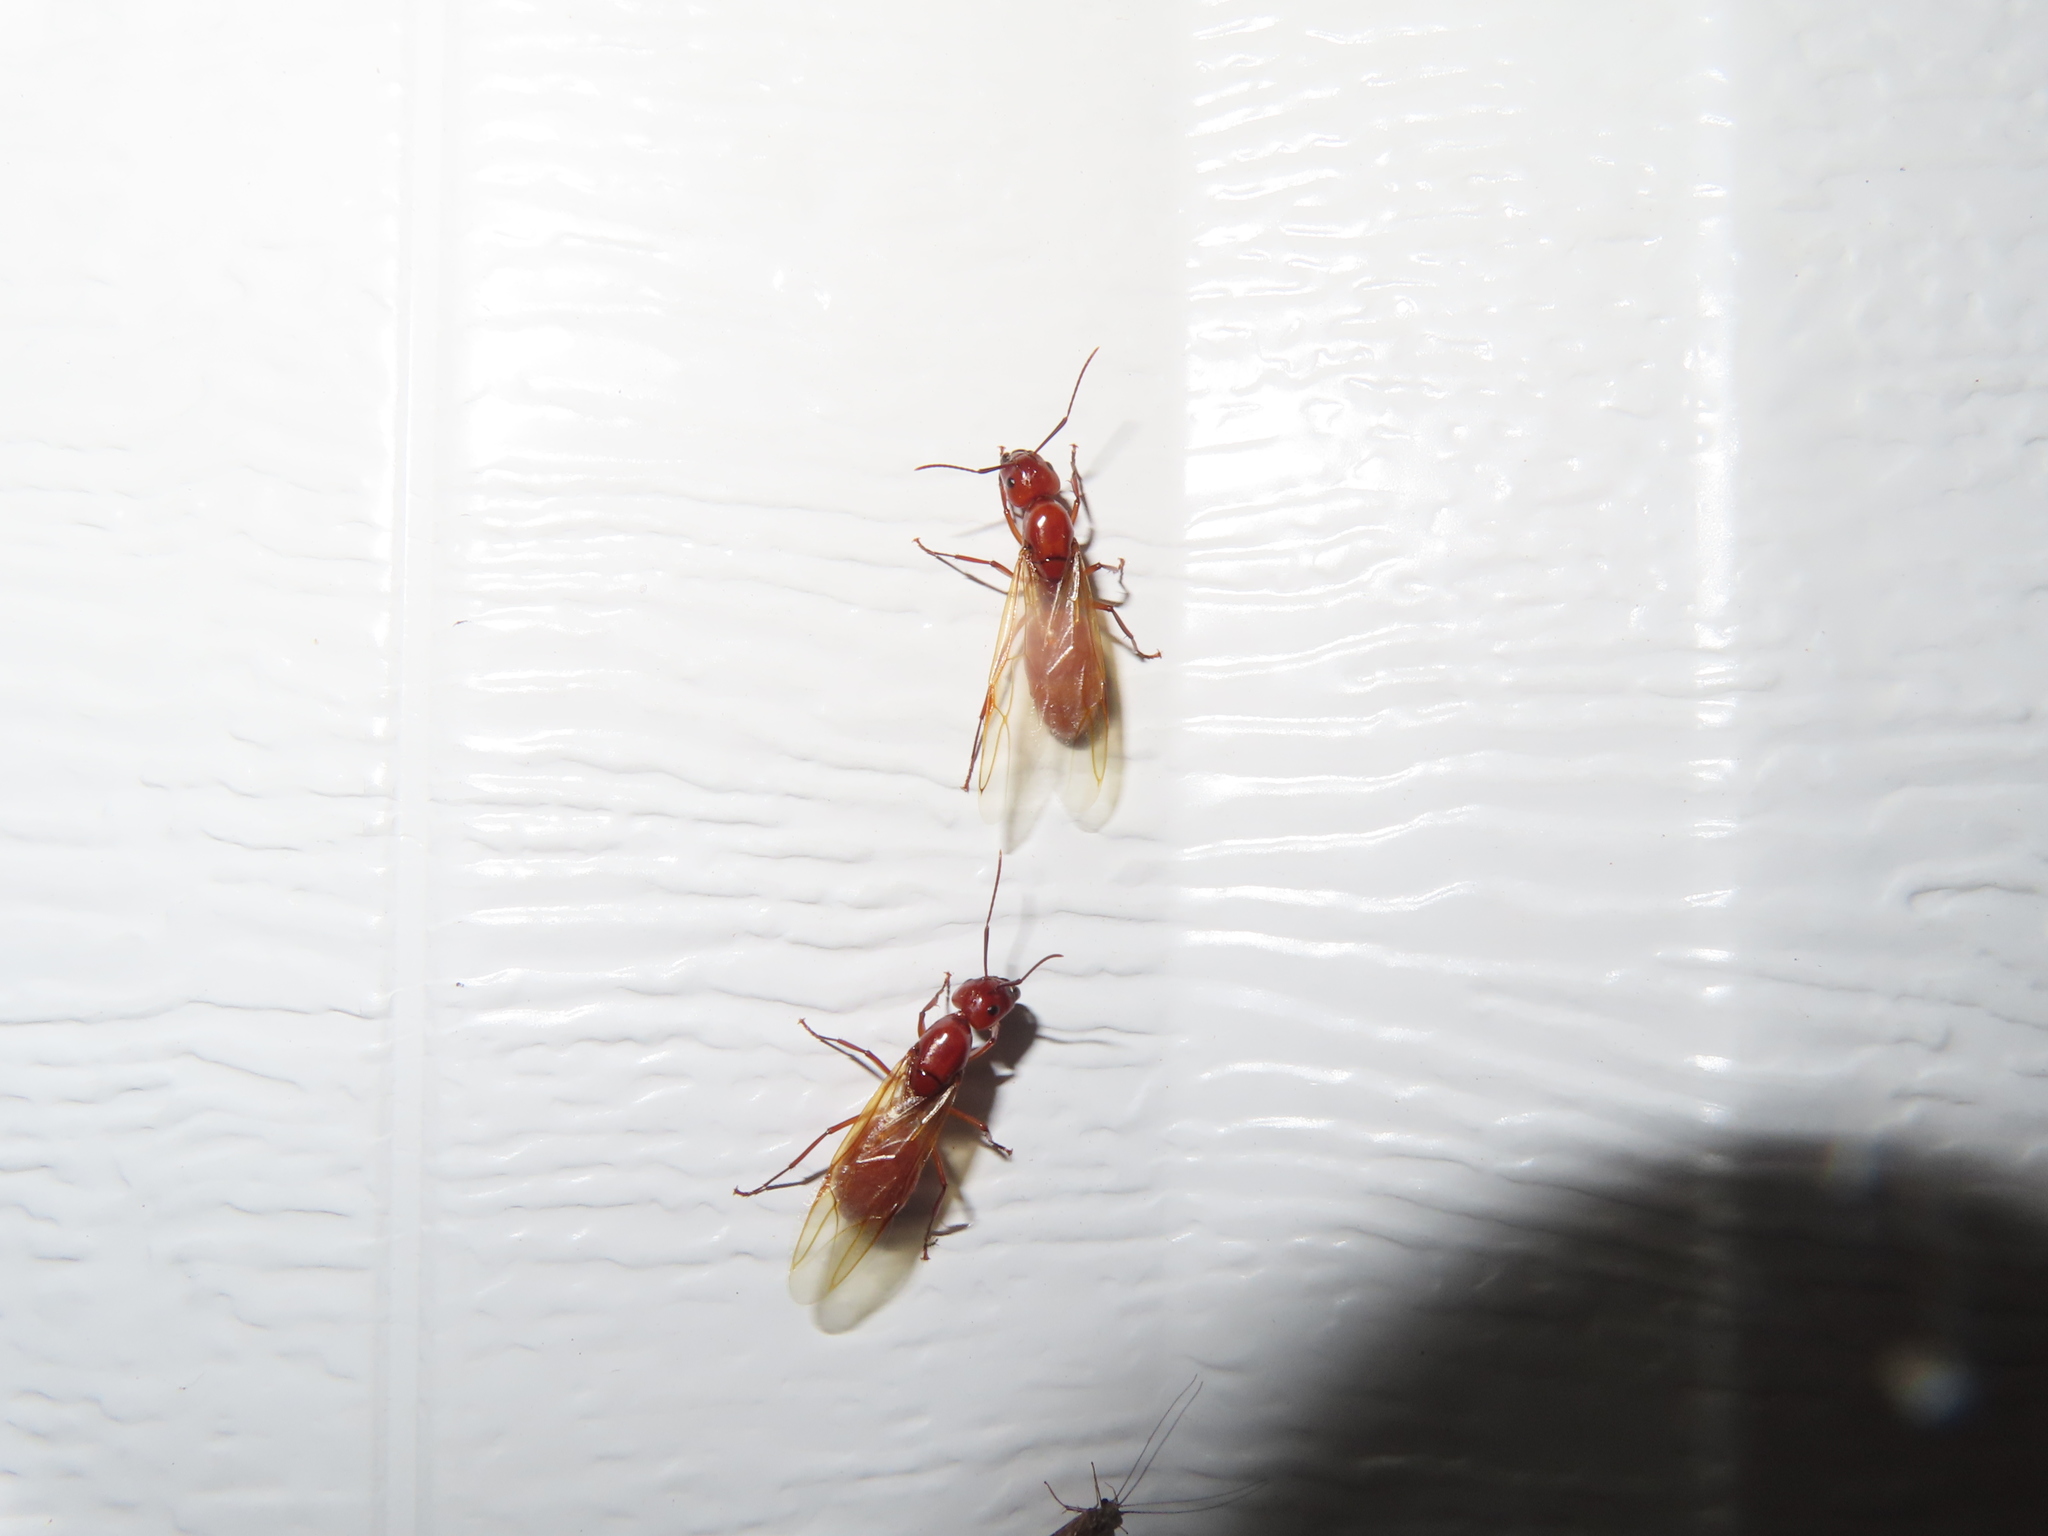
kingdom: Animalia
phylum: Arthropoda
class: Insecta
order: Hymenoptera
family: Formicidae
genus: Camponotus
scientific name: Camponotus castaneus
